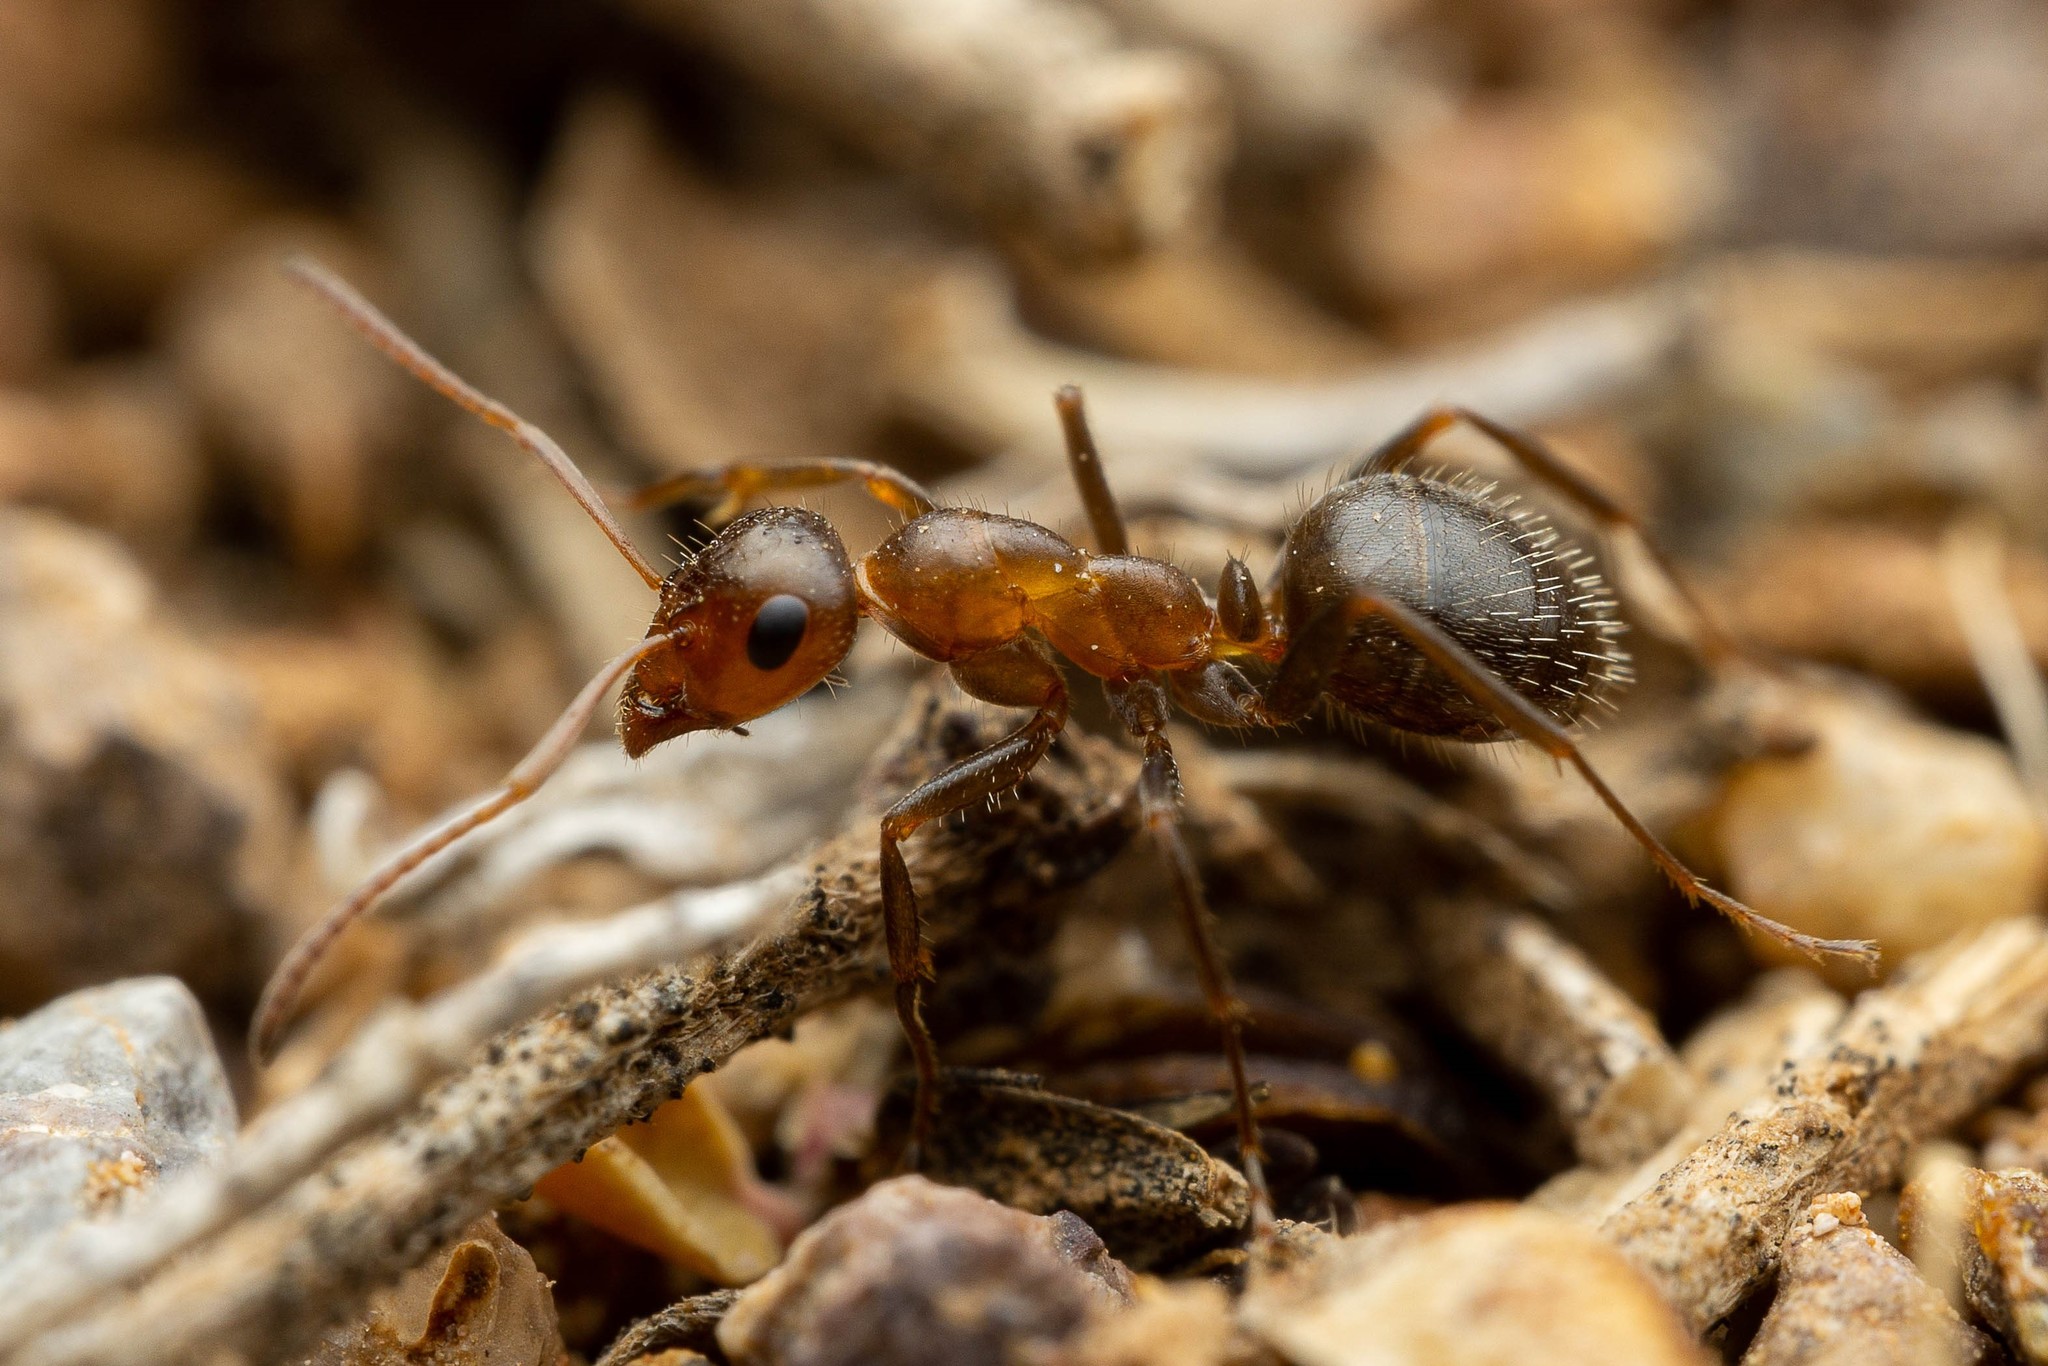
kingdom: Animalia
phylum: Arthropoda
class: Insecta
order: Hymenoptera
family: Formicidae
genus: Formica
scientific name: Formica perpilosa
